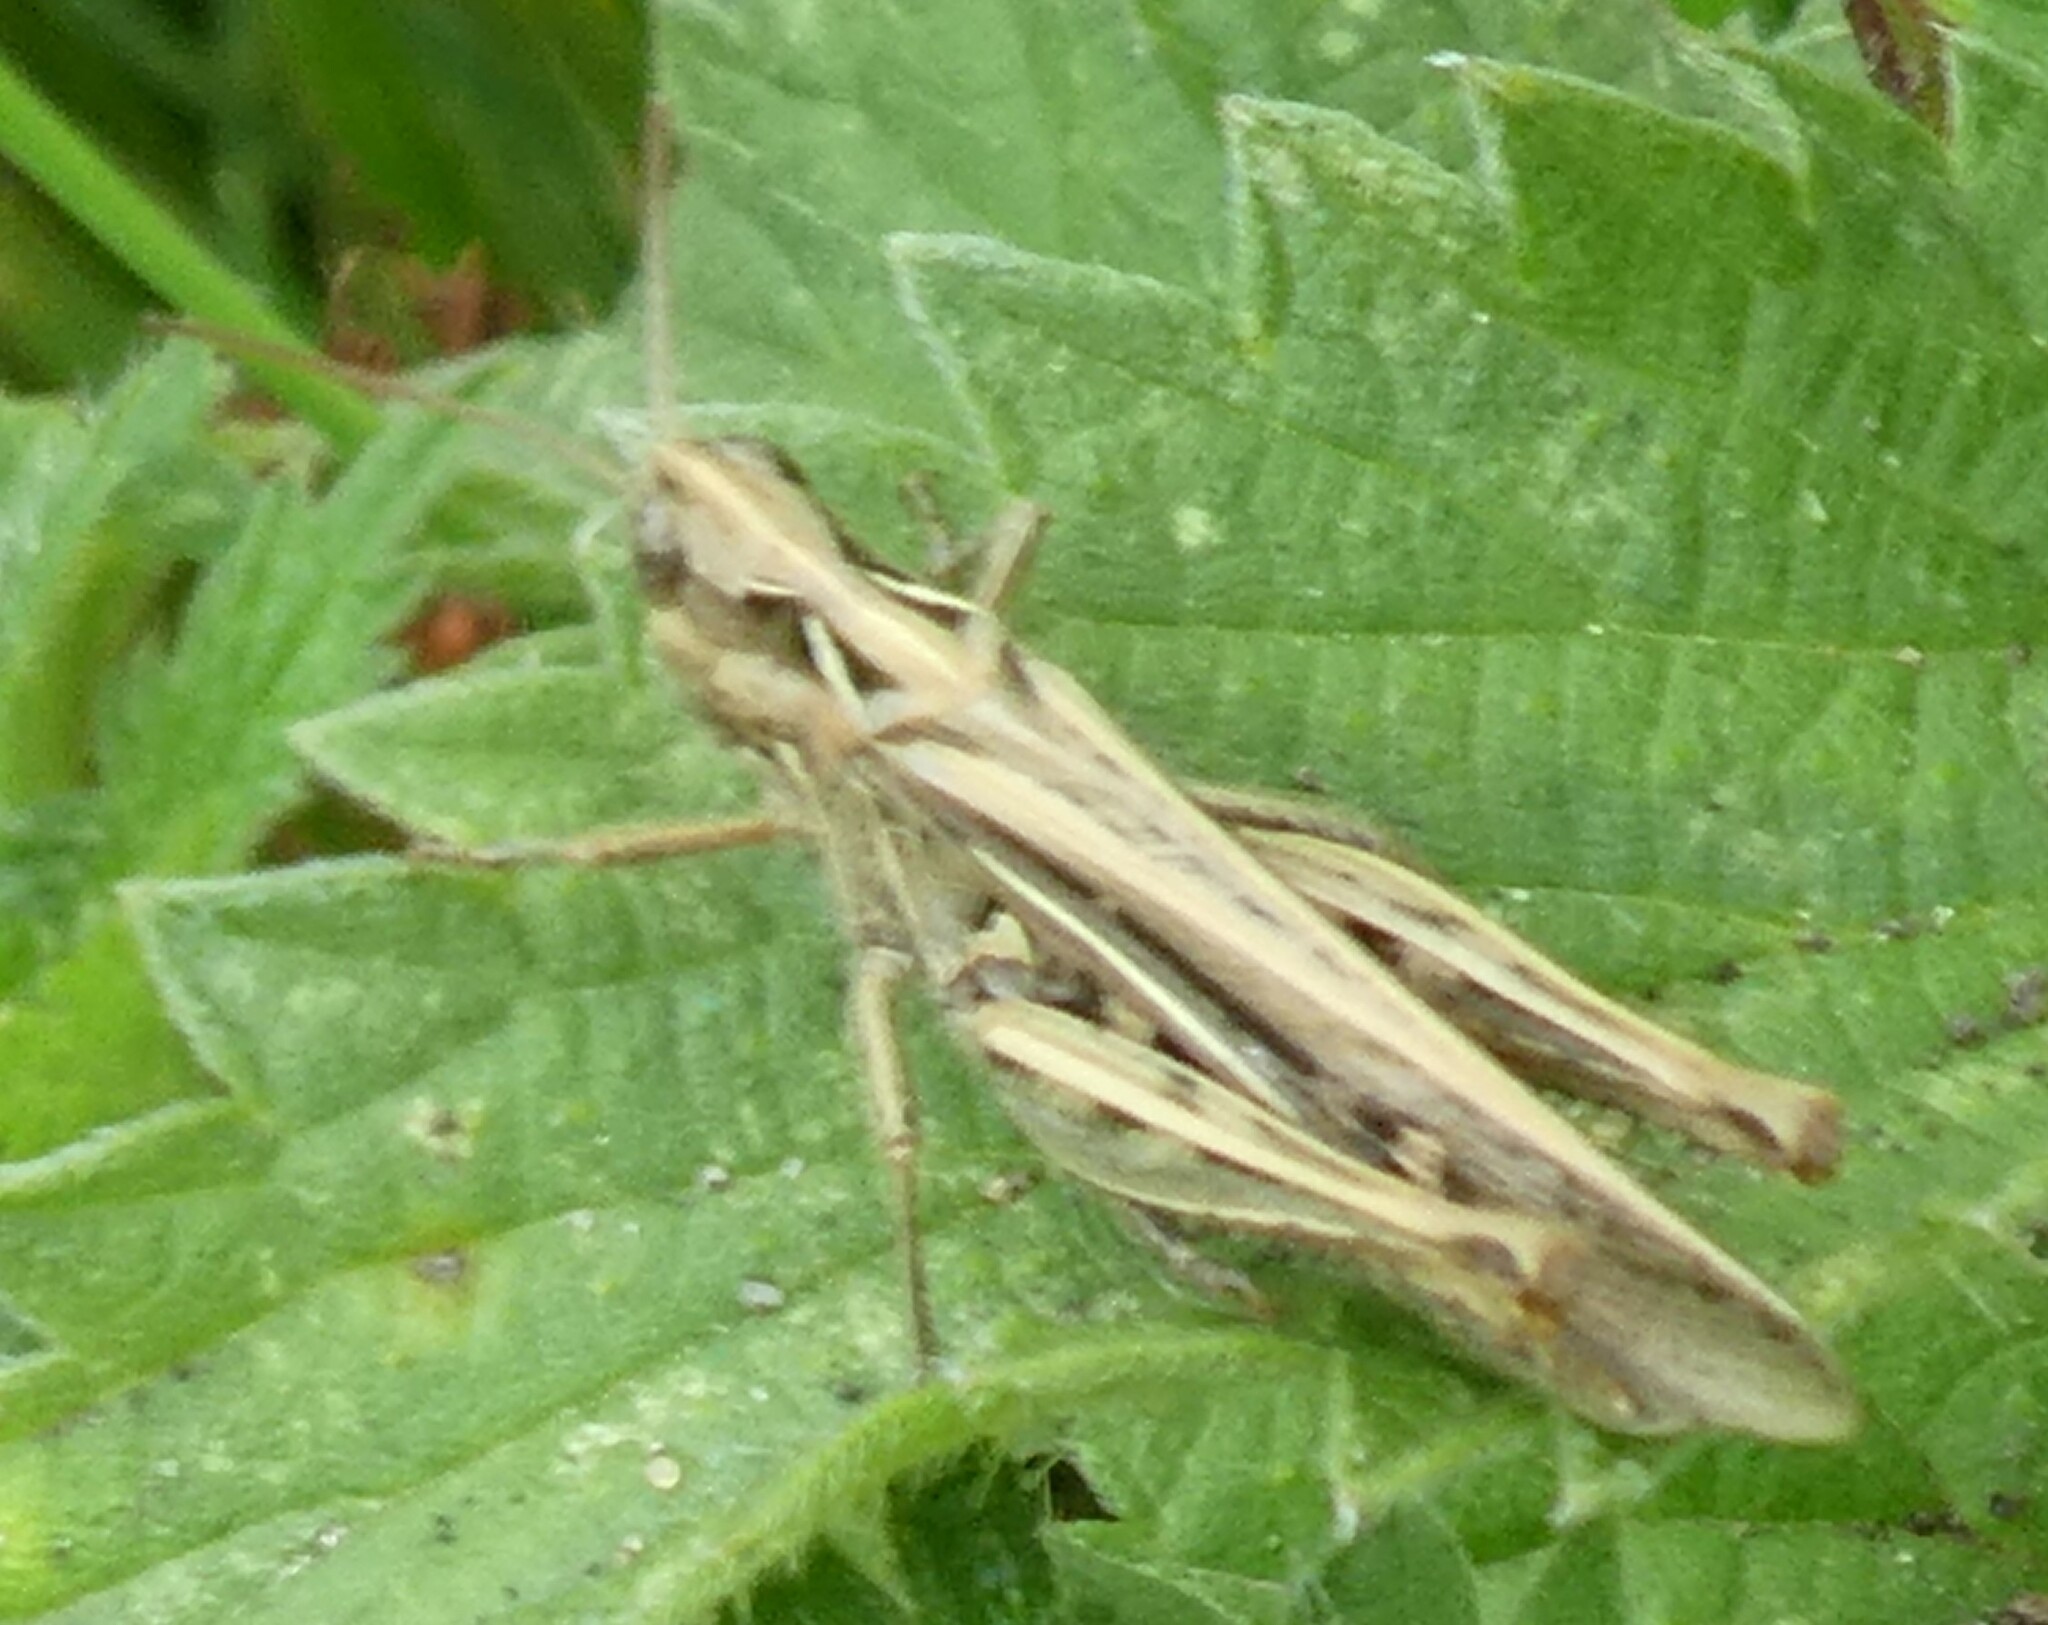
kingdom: Animalia
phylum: Arthropoda
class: Insecta
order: Orthoptera
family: Acrididae
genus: Chorthippus
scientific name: Chorthippus brunneus
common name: Field grasshopper
